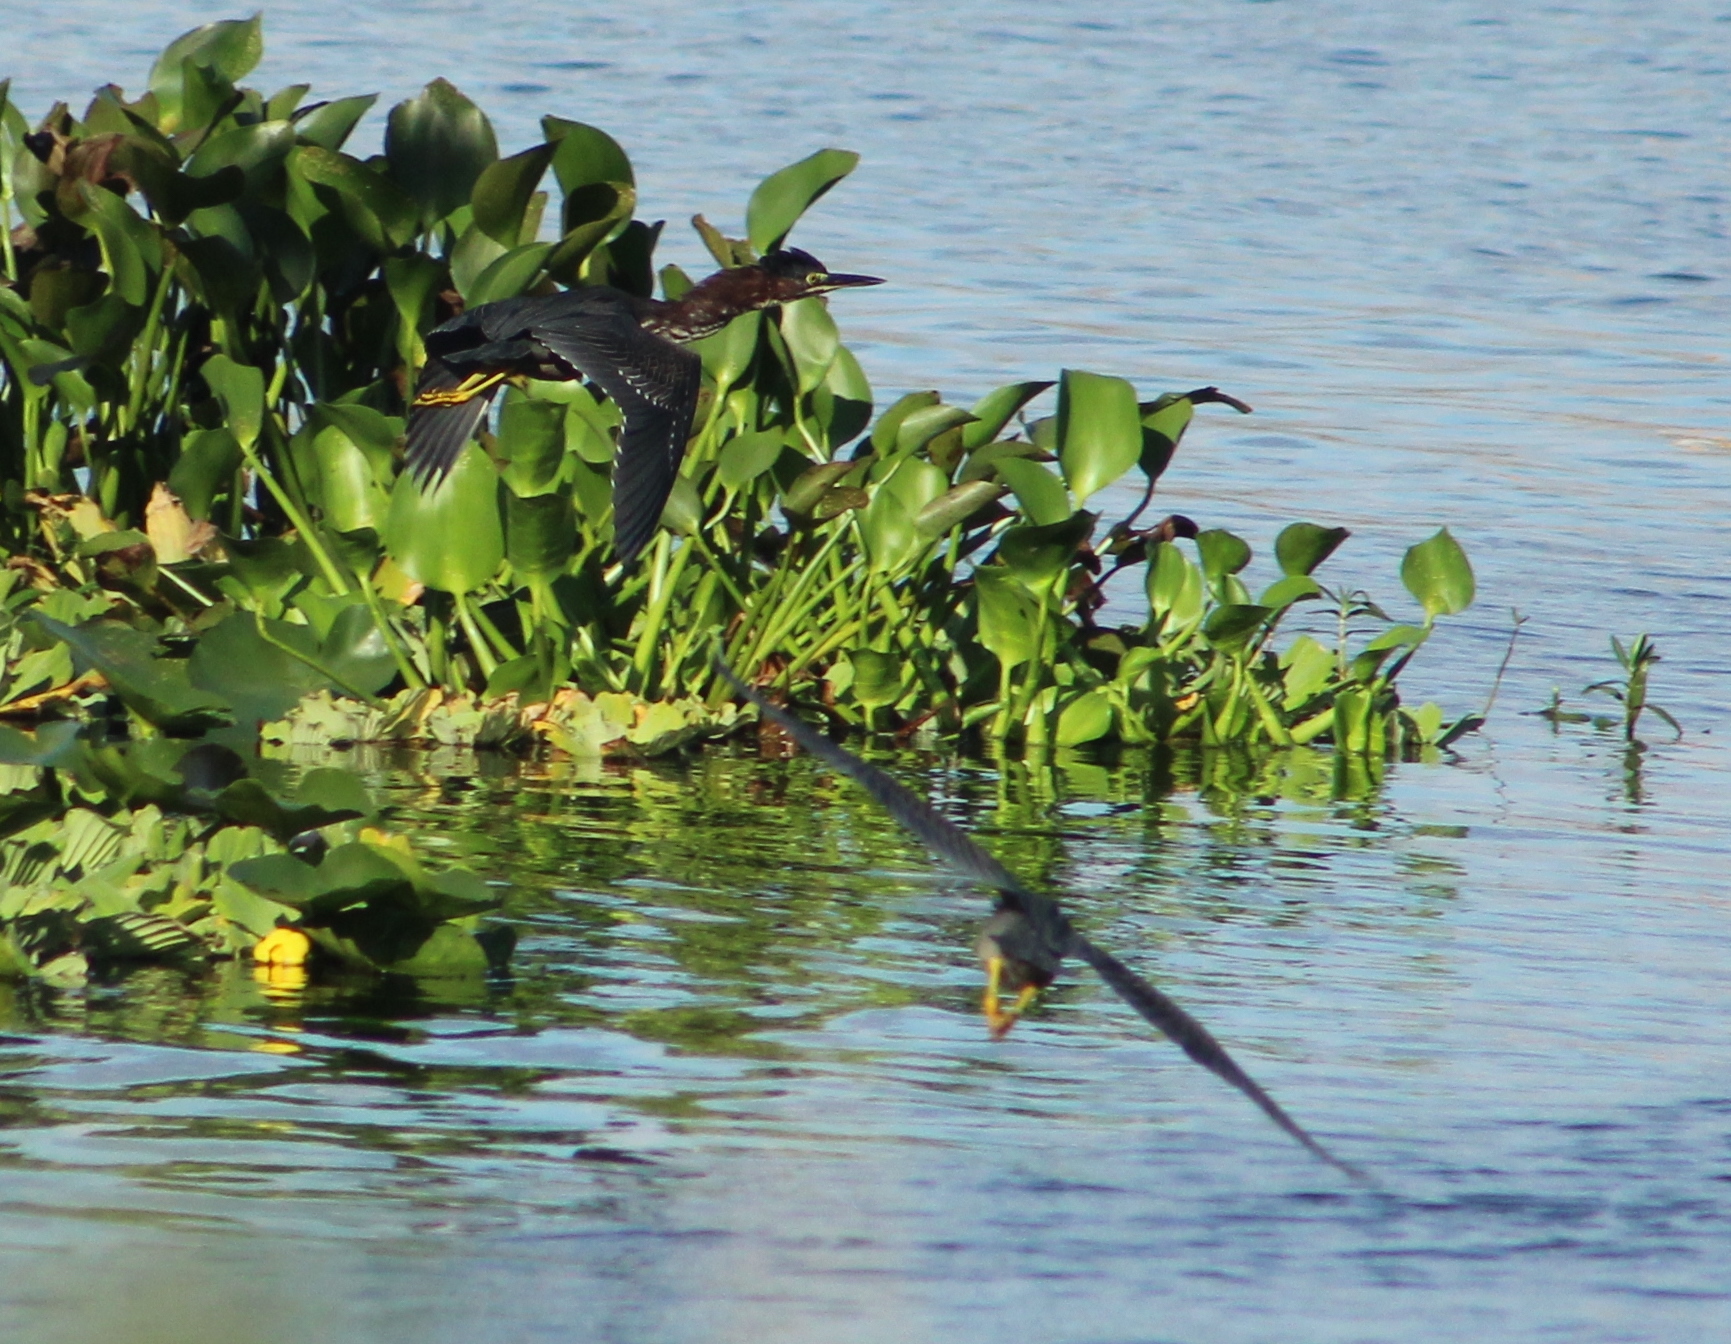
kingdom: Animalia
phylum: Chordata
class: Aves
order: Pelecaniformes
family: Ardeidae
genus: Butorides
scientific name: Butorides virescens
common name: Green heron
